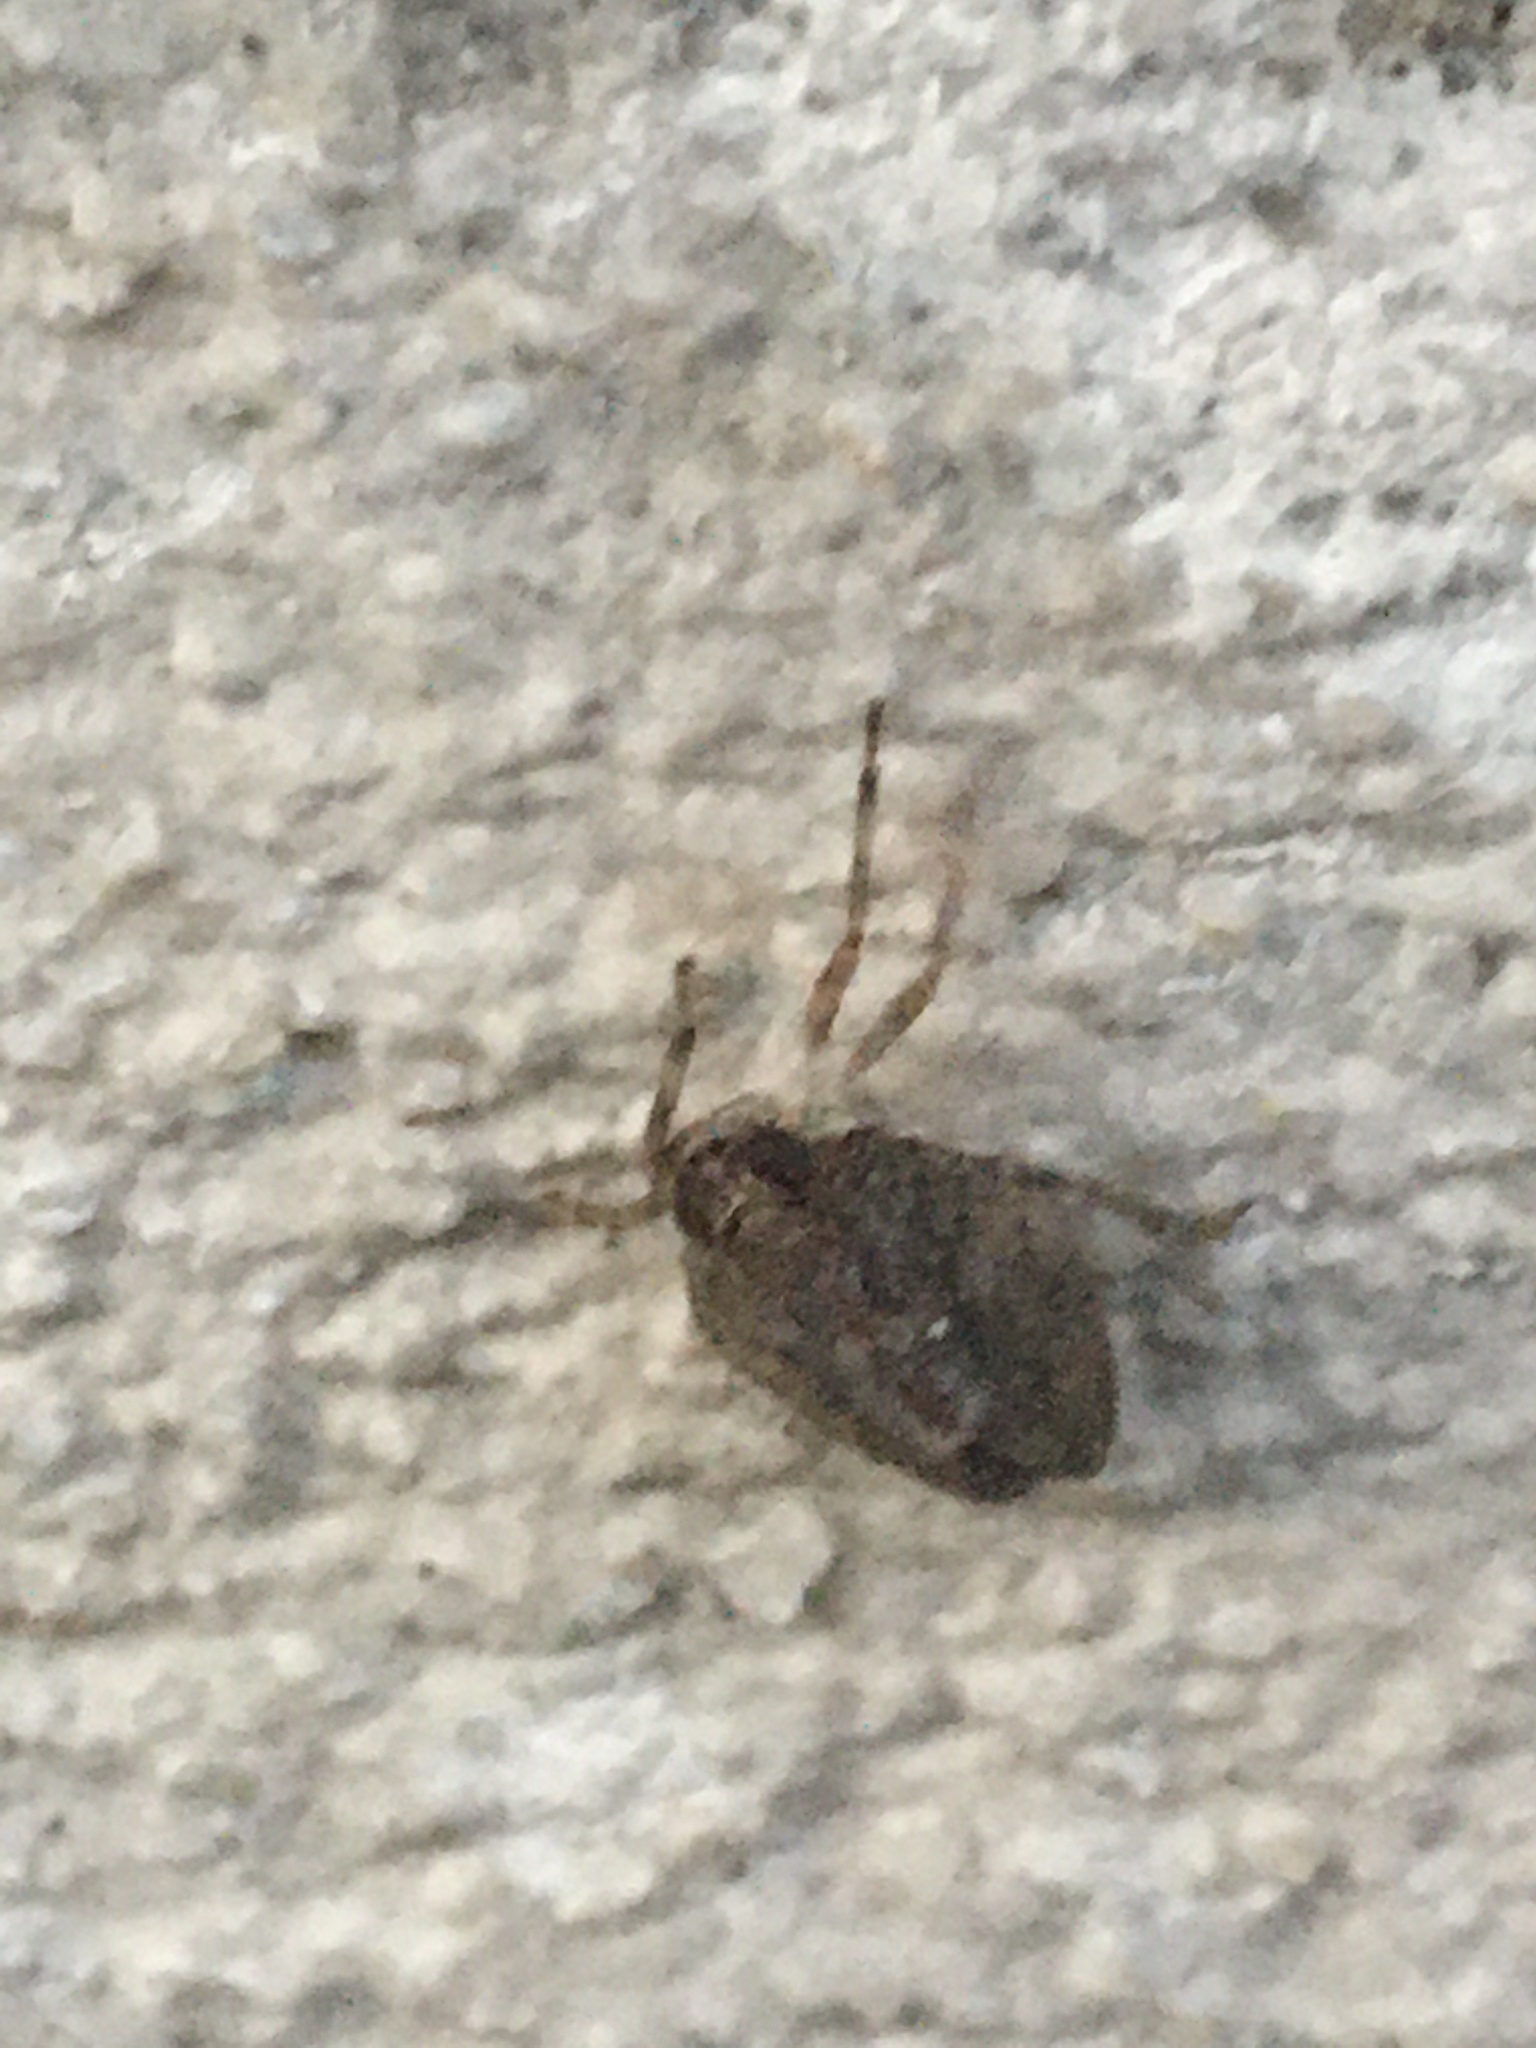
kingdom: Animalia
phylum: Arthropoda
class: Insecta
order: Hemiptera
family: Issidae
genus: Issus
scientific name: Issus coleoptratus
